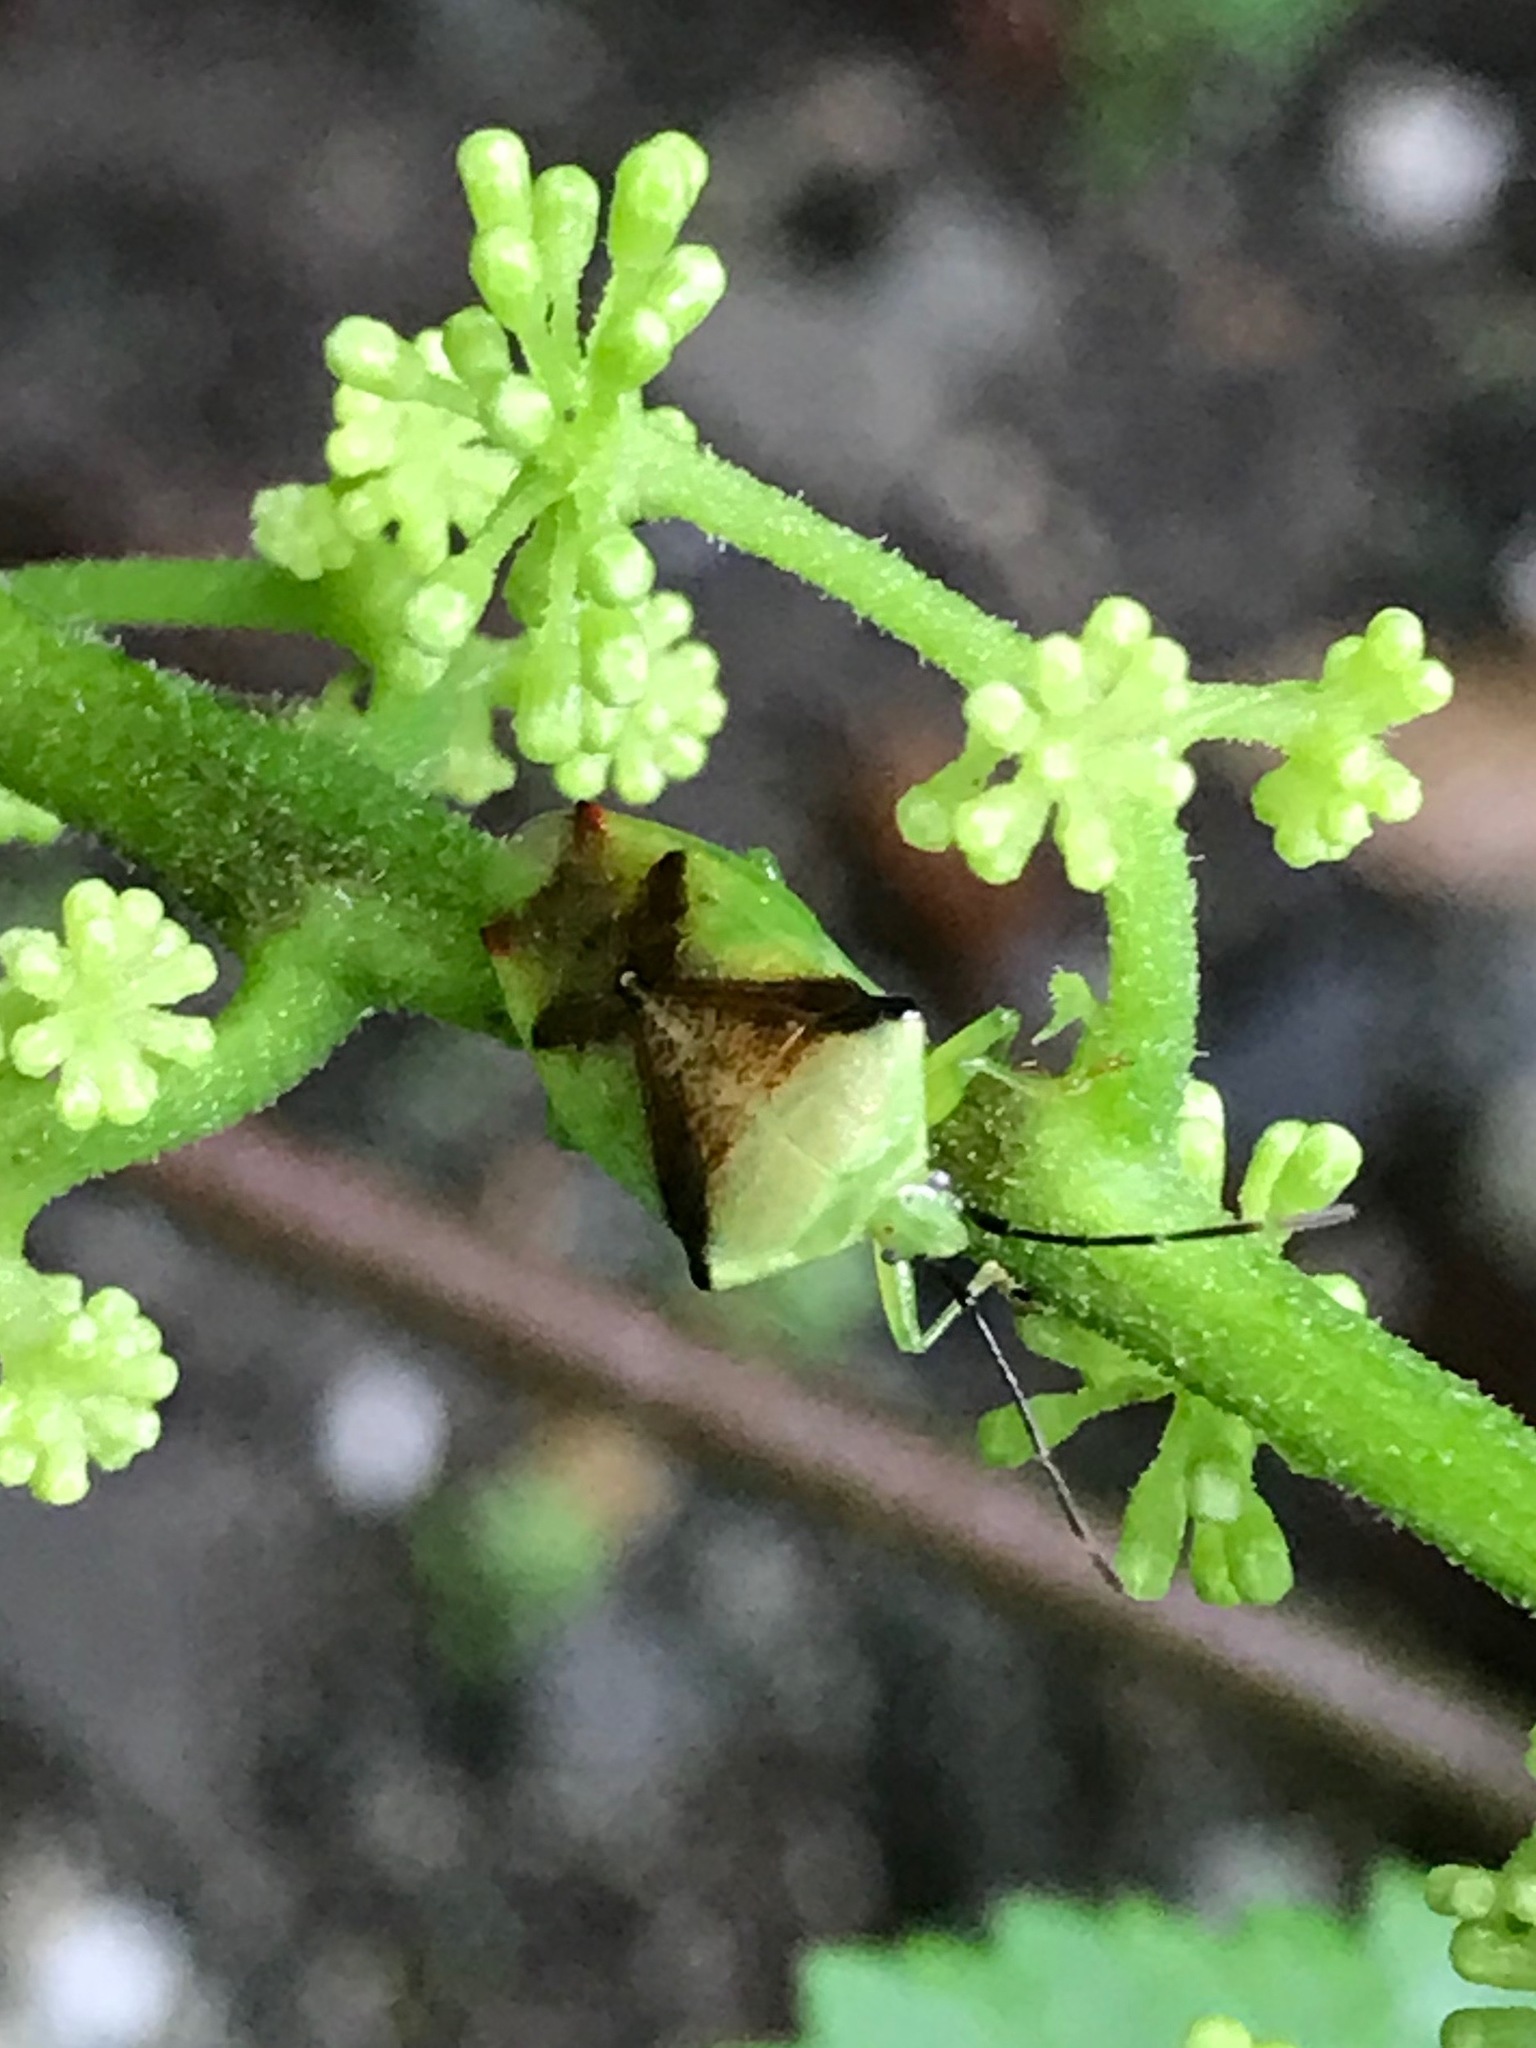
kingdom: Animalia
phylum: Arthropoda
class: Insecta
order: Hemiptera
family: Acanthosomatidae
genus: Elasmostethus
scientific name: Elasmostethus atricornis
